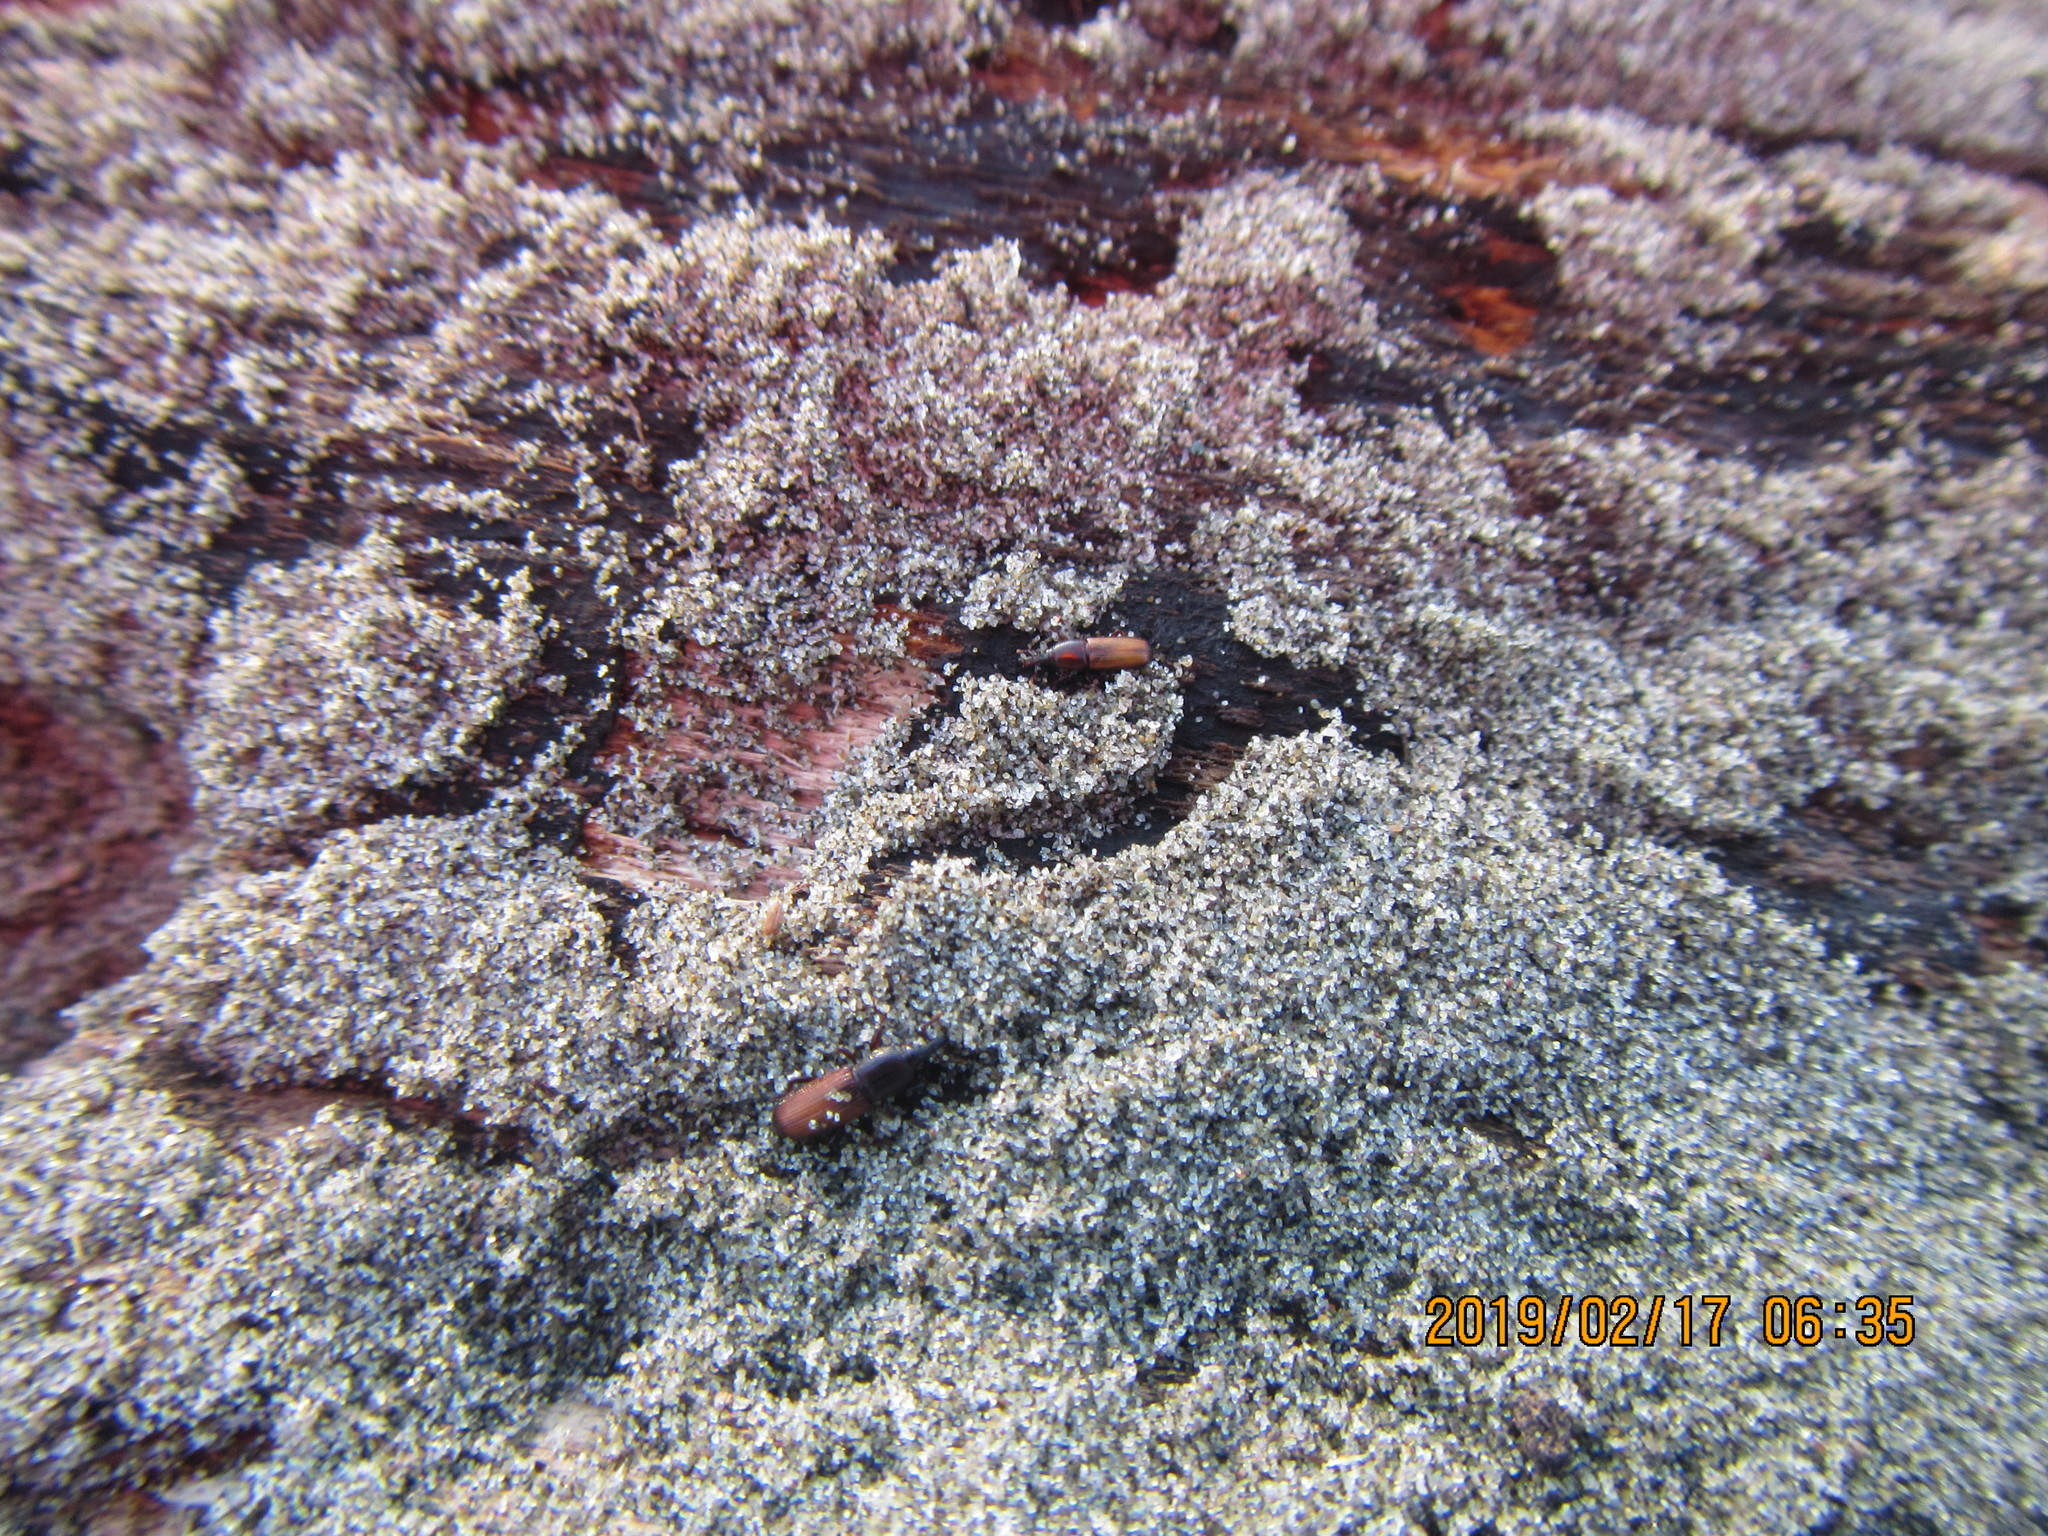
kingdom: Animalia
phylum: Arthropoda
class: Insecta
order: Coleoptera
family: Curculionidae
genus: Mesites
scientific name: Mesites pallidipennis
